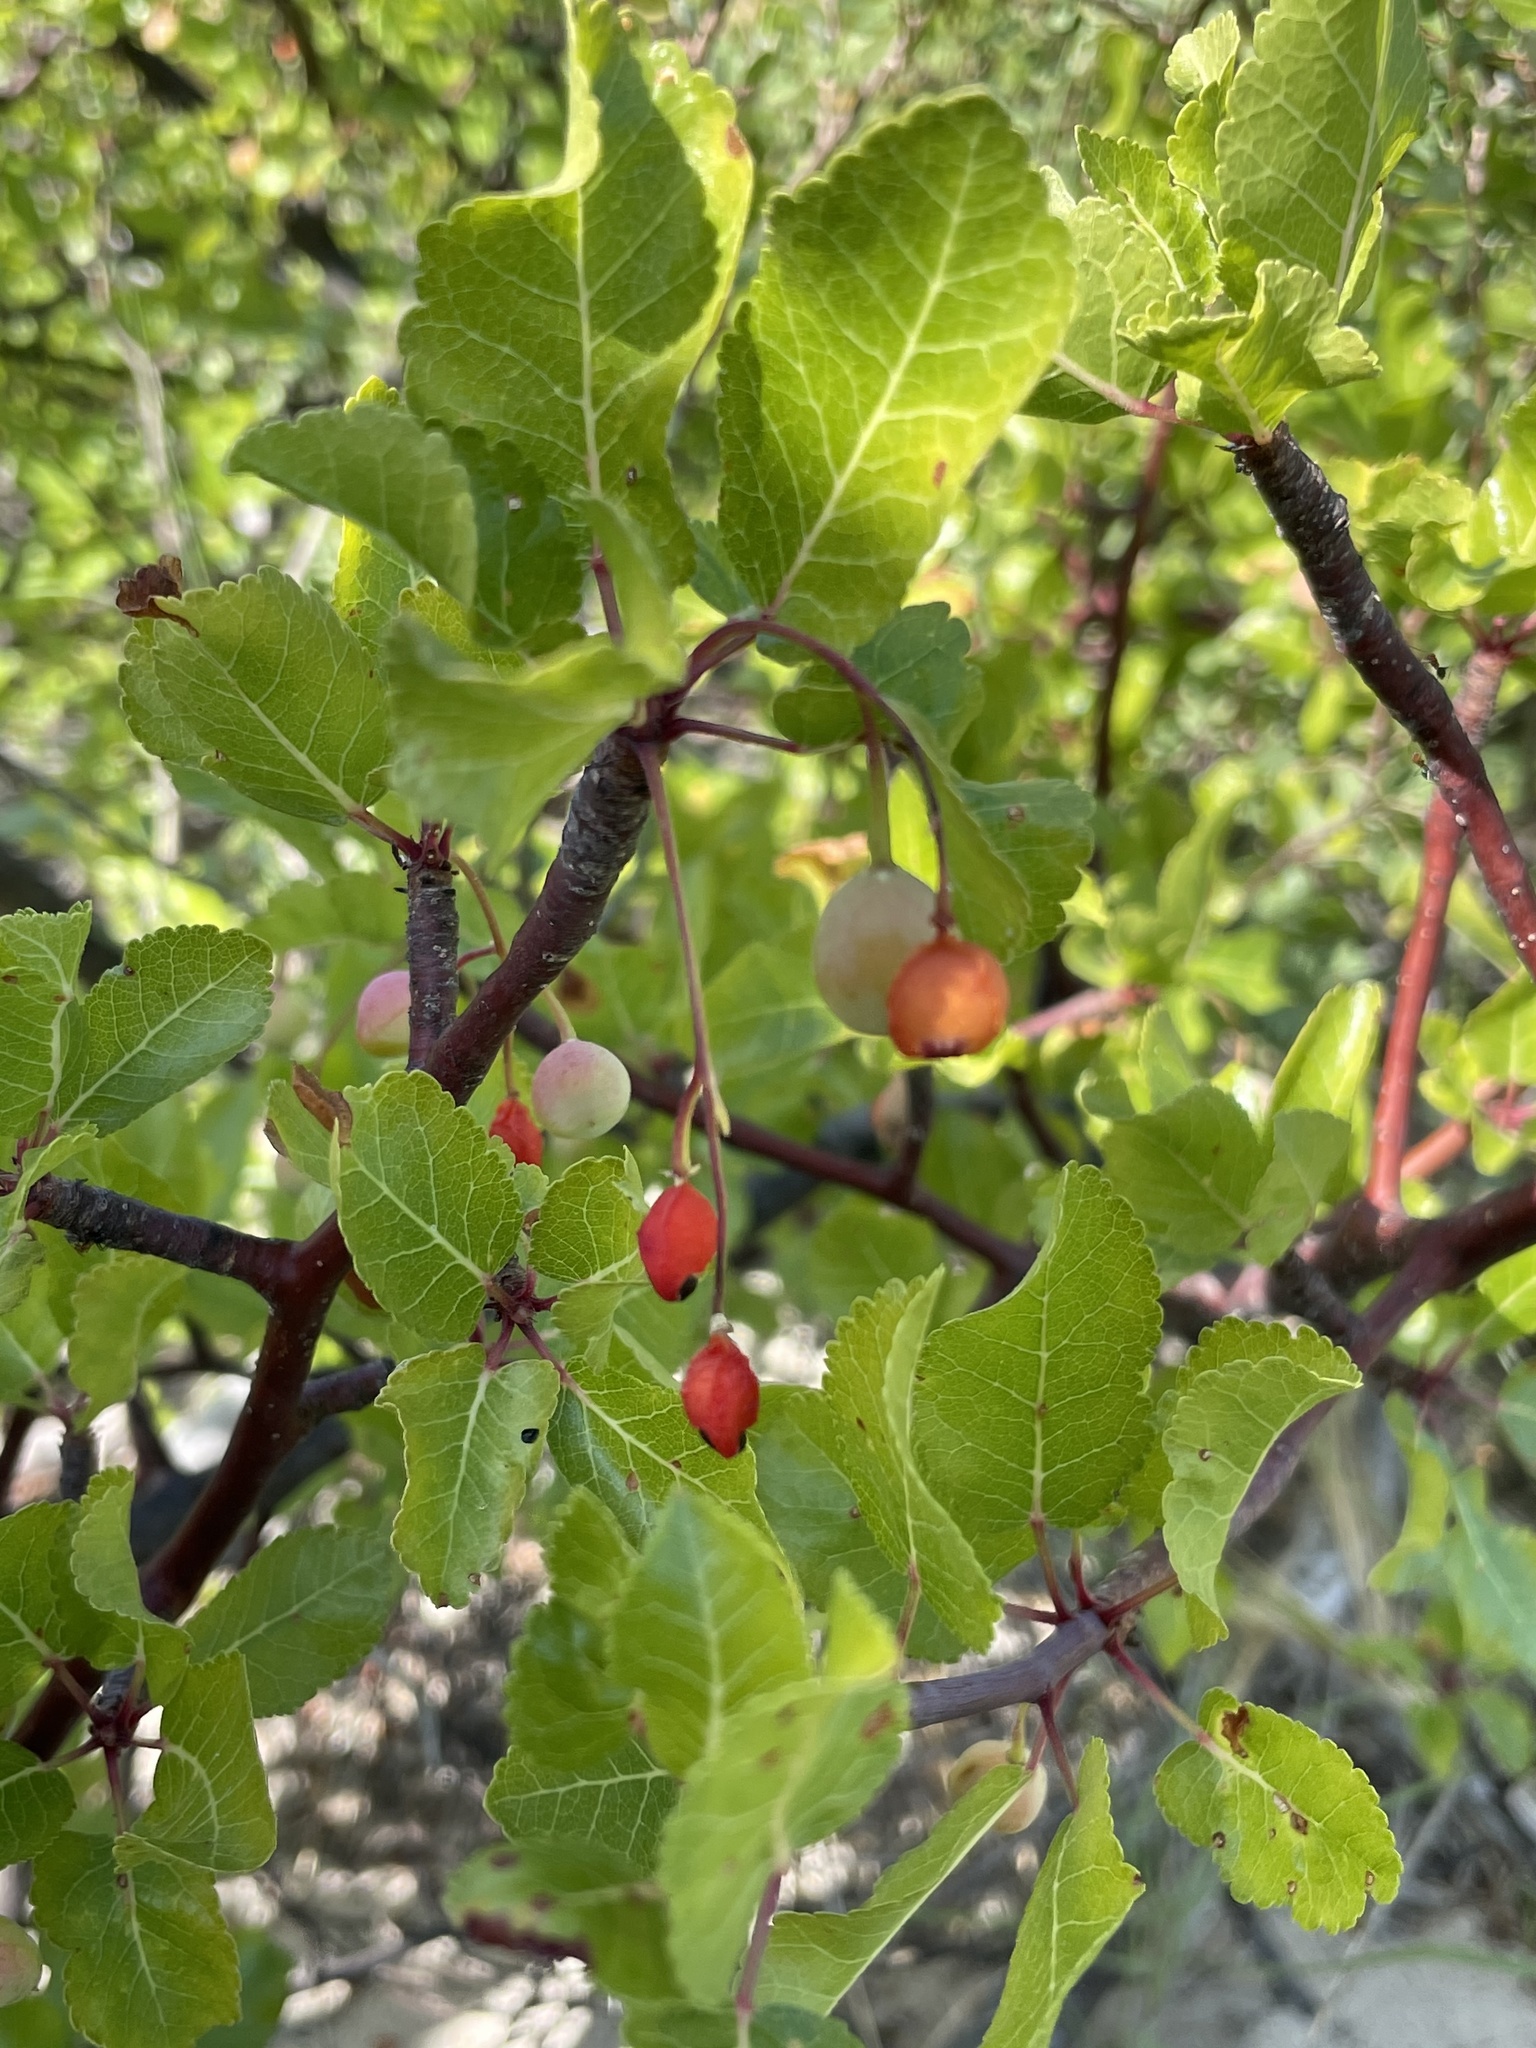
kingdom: Plantae
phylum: Tracheophyta
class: Magnoliopsida
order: Sapindales
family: Burseraceae
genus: Bursera
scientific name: Bursera epinnata
